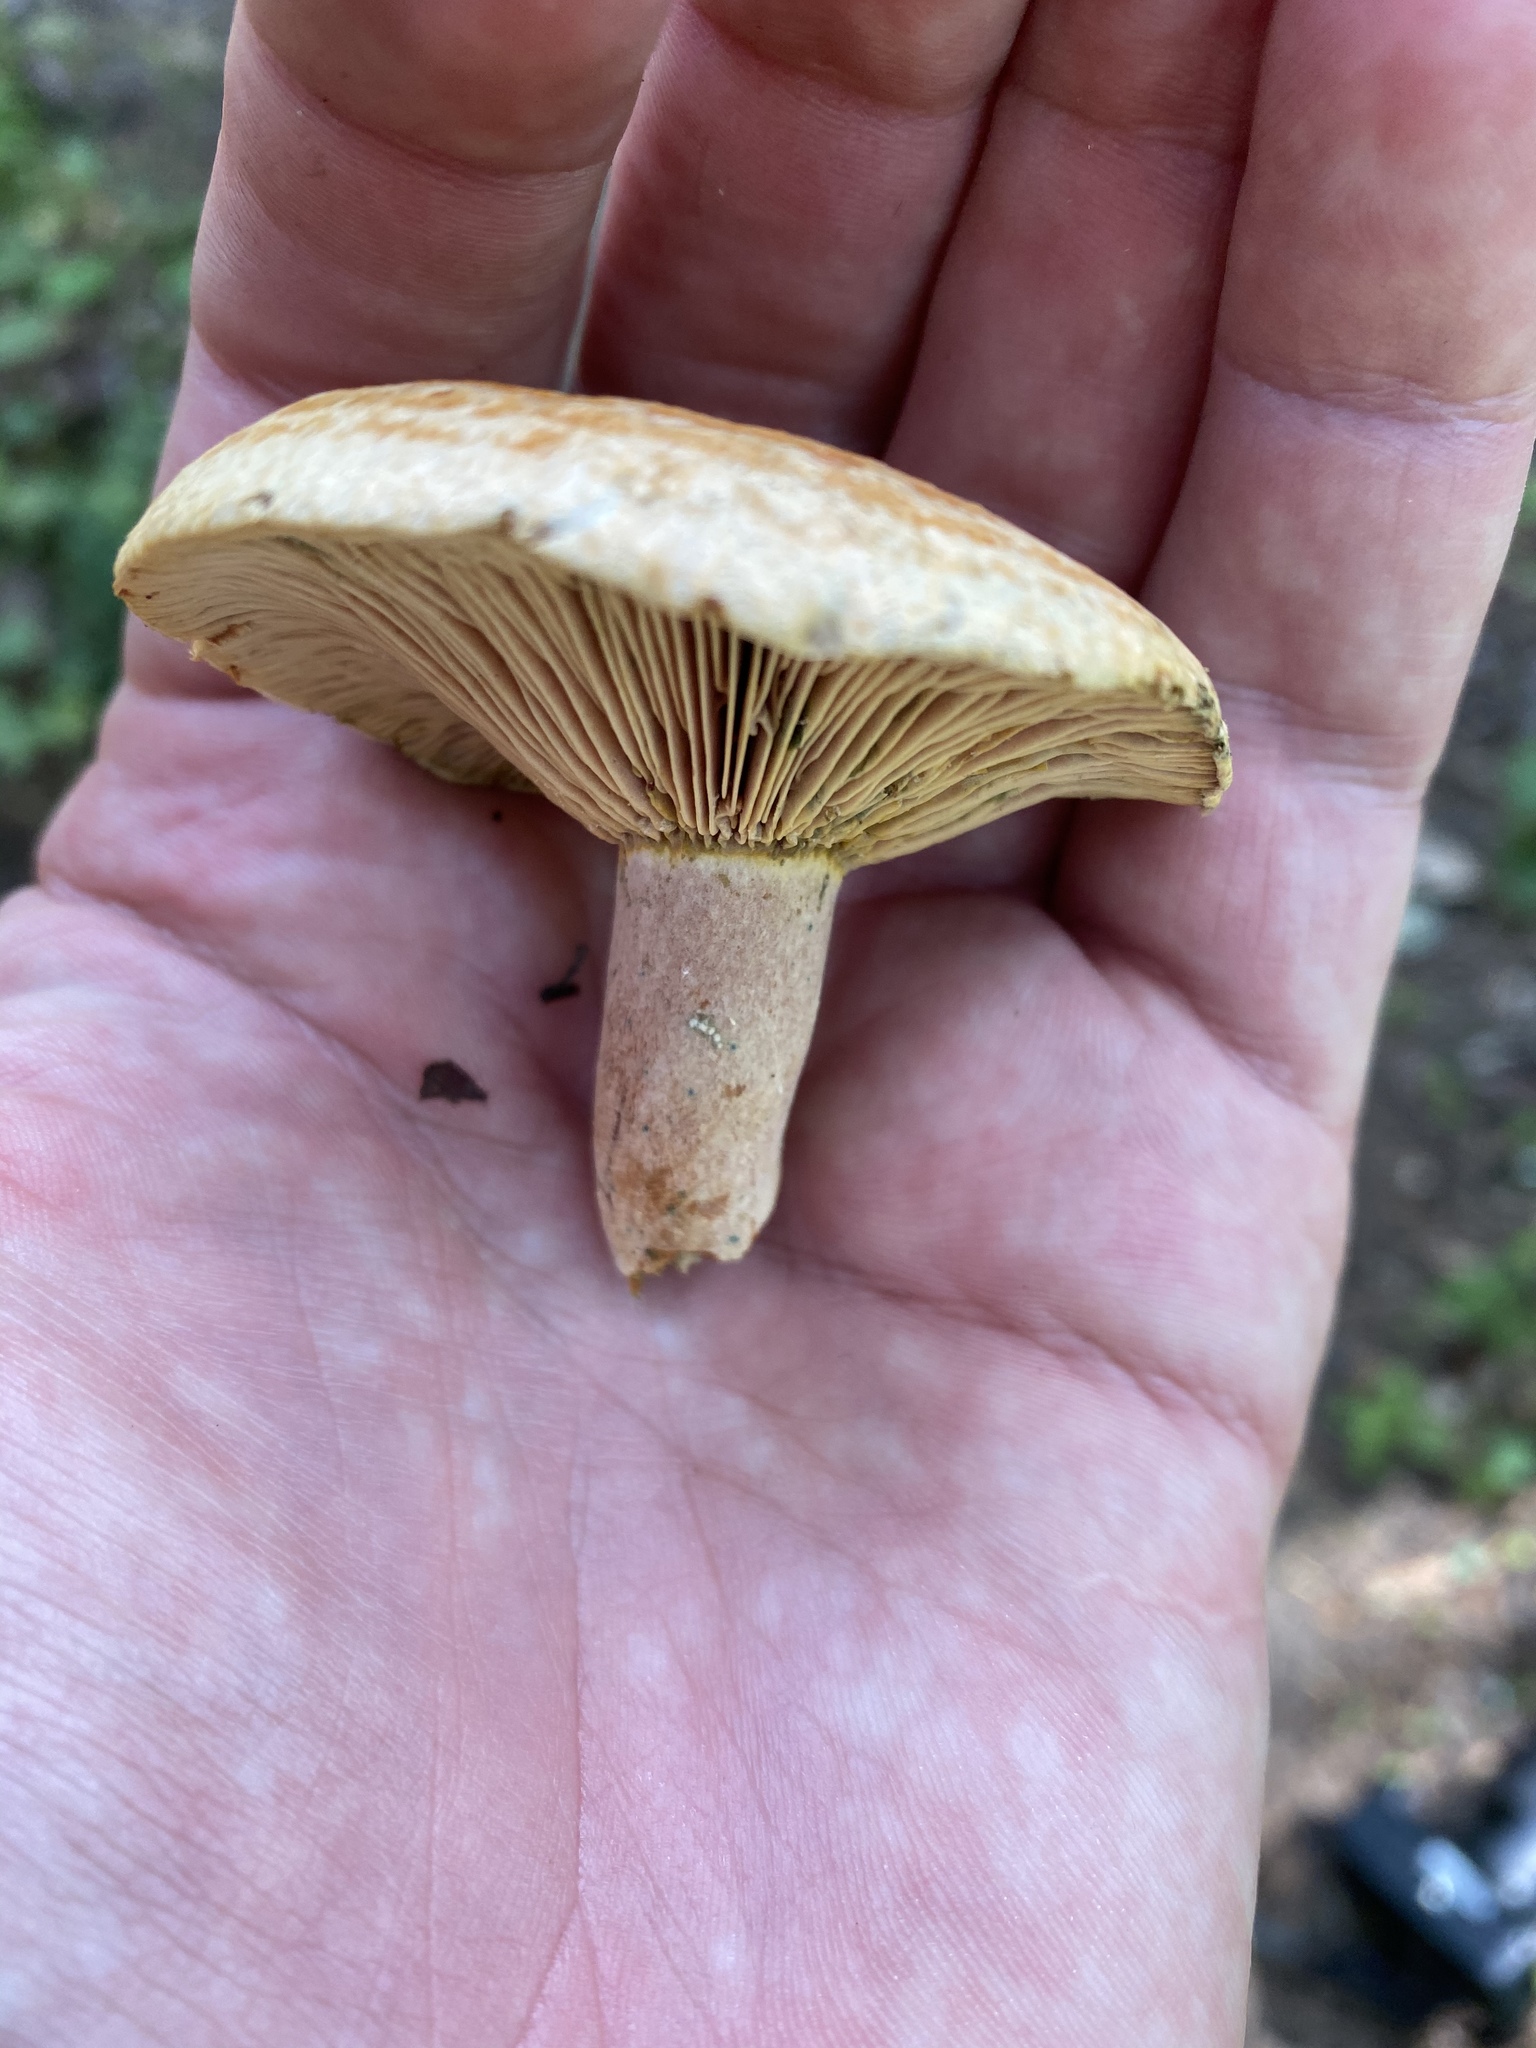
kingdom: Fungi
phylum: Basidiomycota
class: Agaricomycetes
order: Russulales
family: Russulaceae
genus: Lactarius
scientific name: Lactarius rubrilacteus
